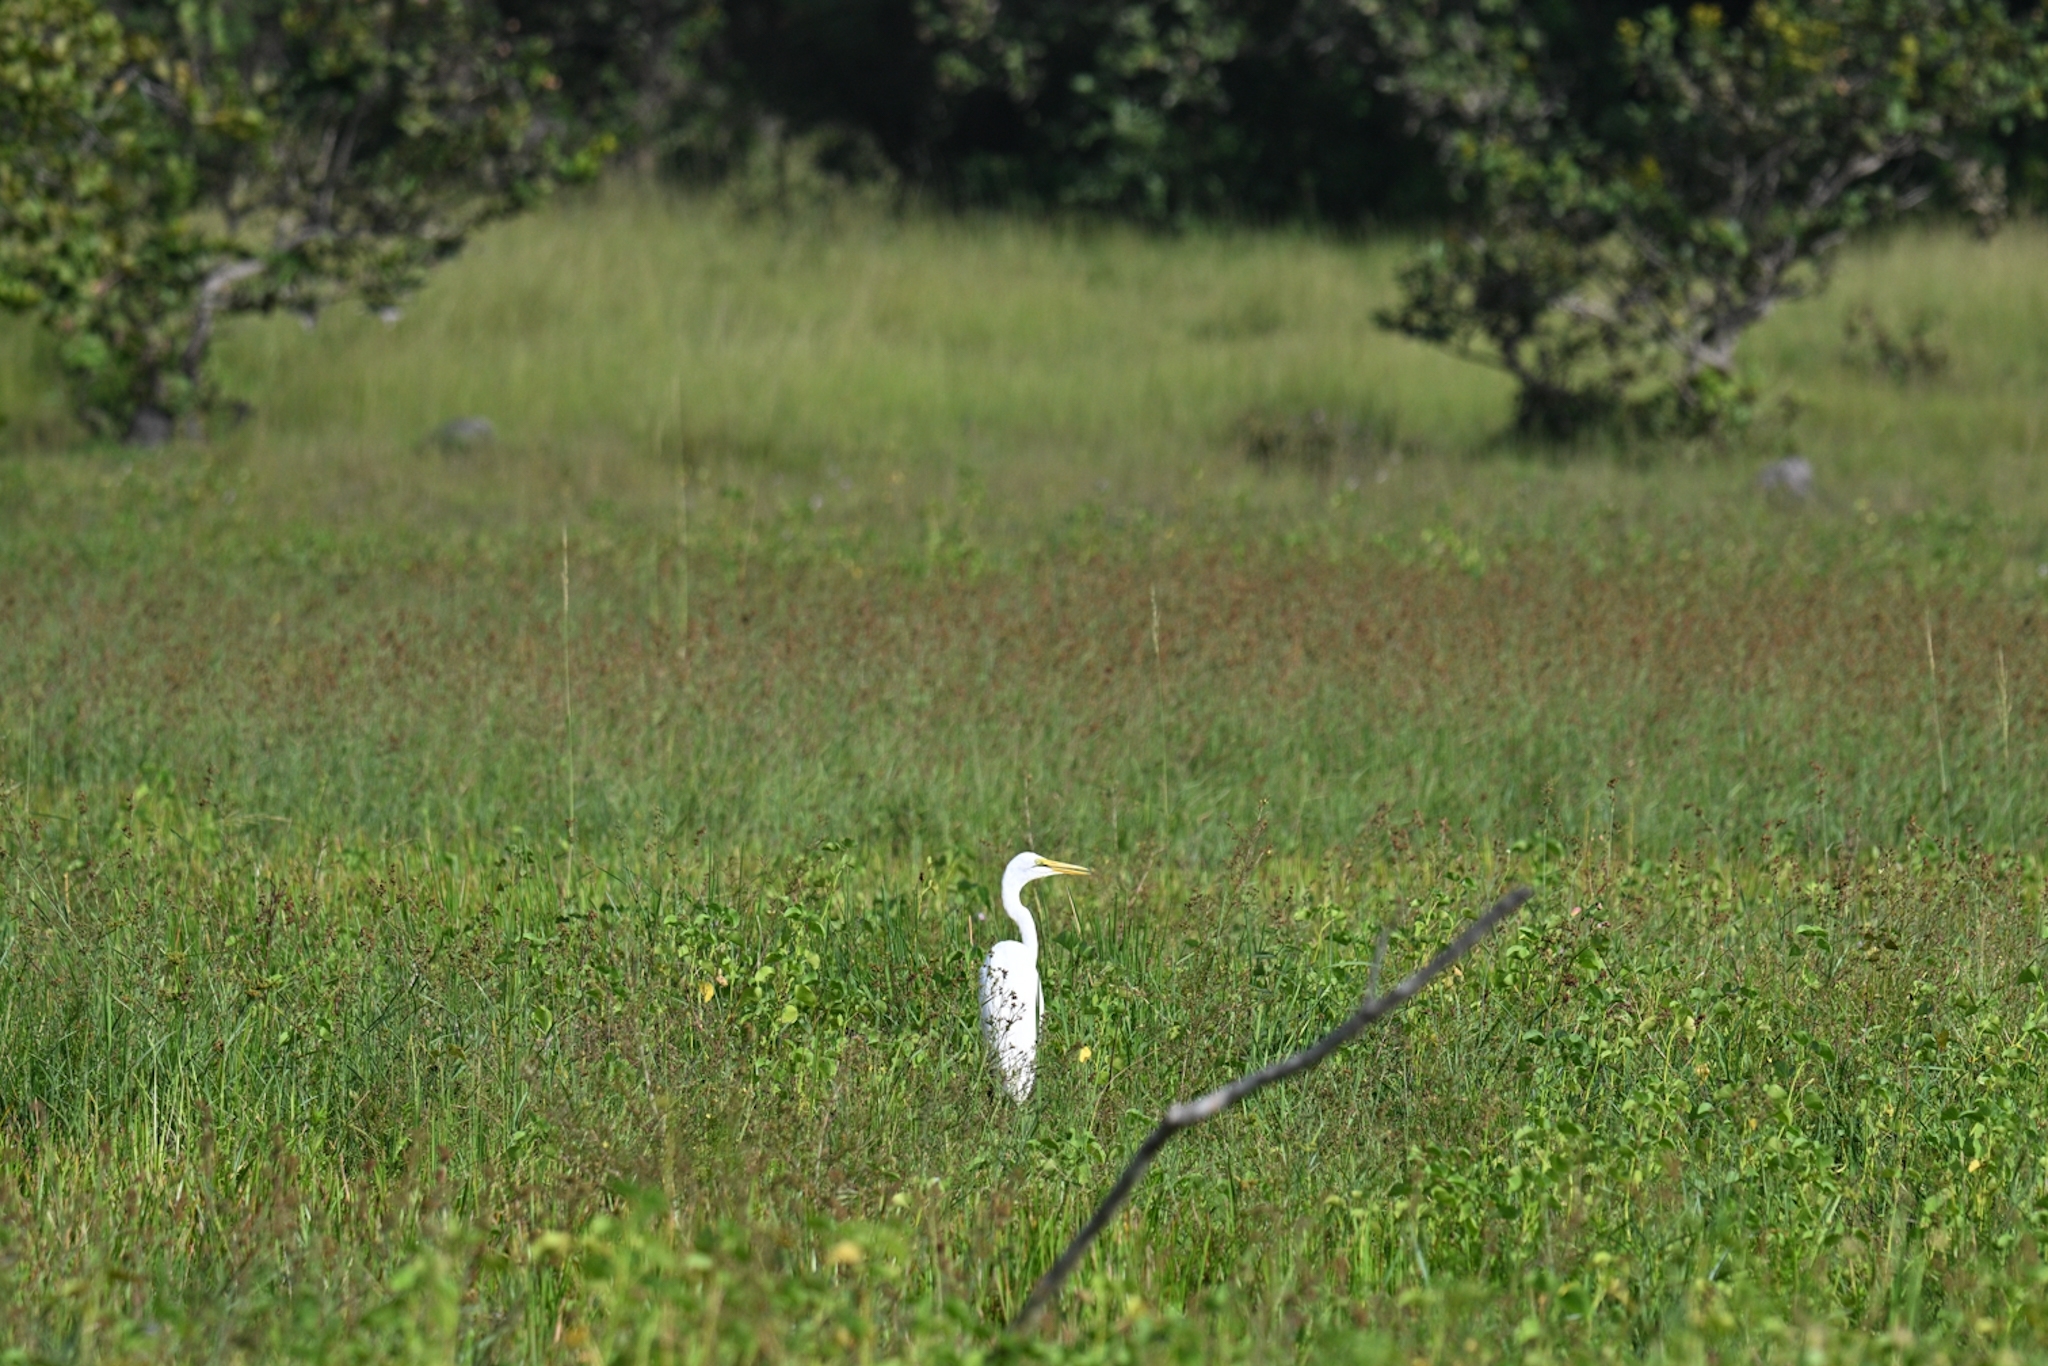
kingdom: Animalia
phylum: Chordata
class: Aves
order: Pelecaniformes
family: Ardeidae
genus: Ardea
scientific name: Ardea alba
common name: Great egret
